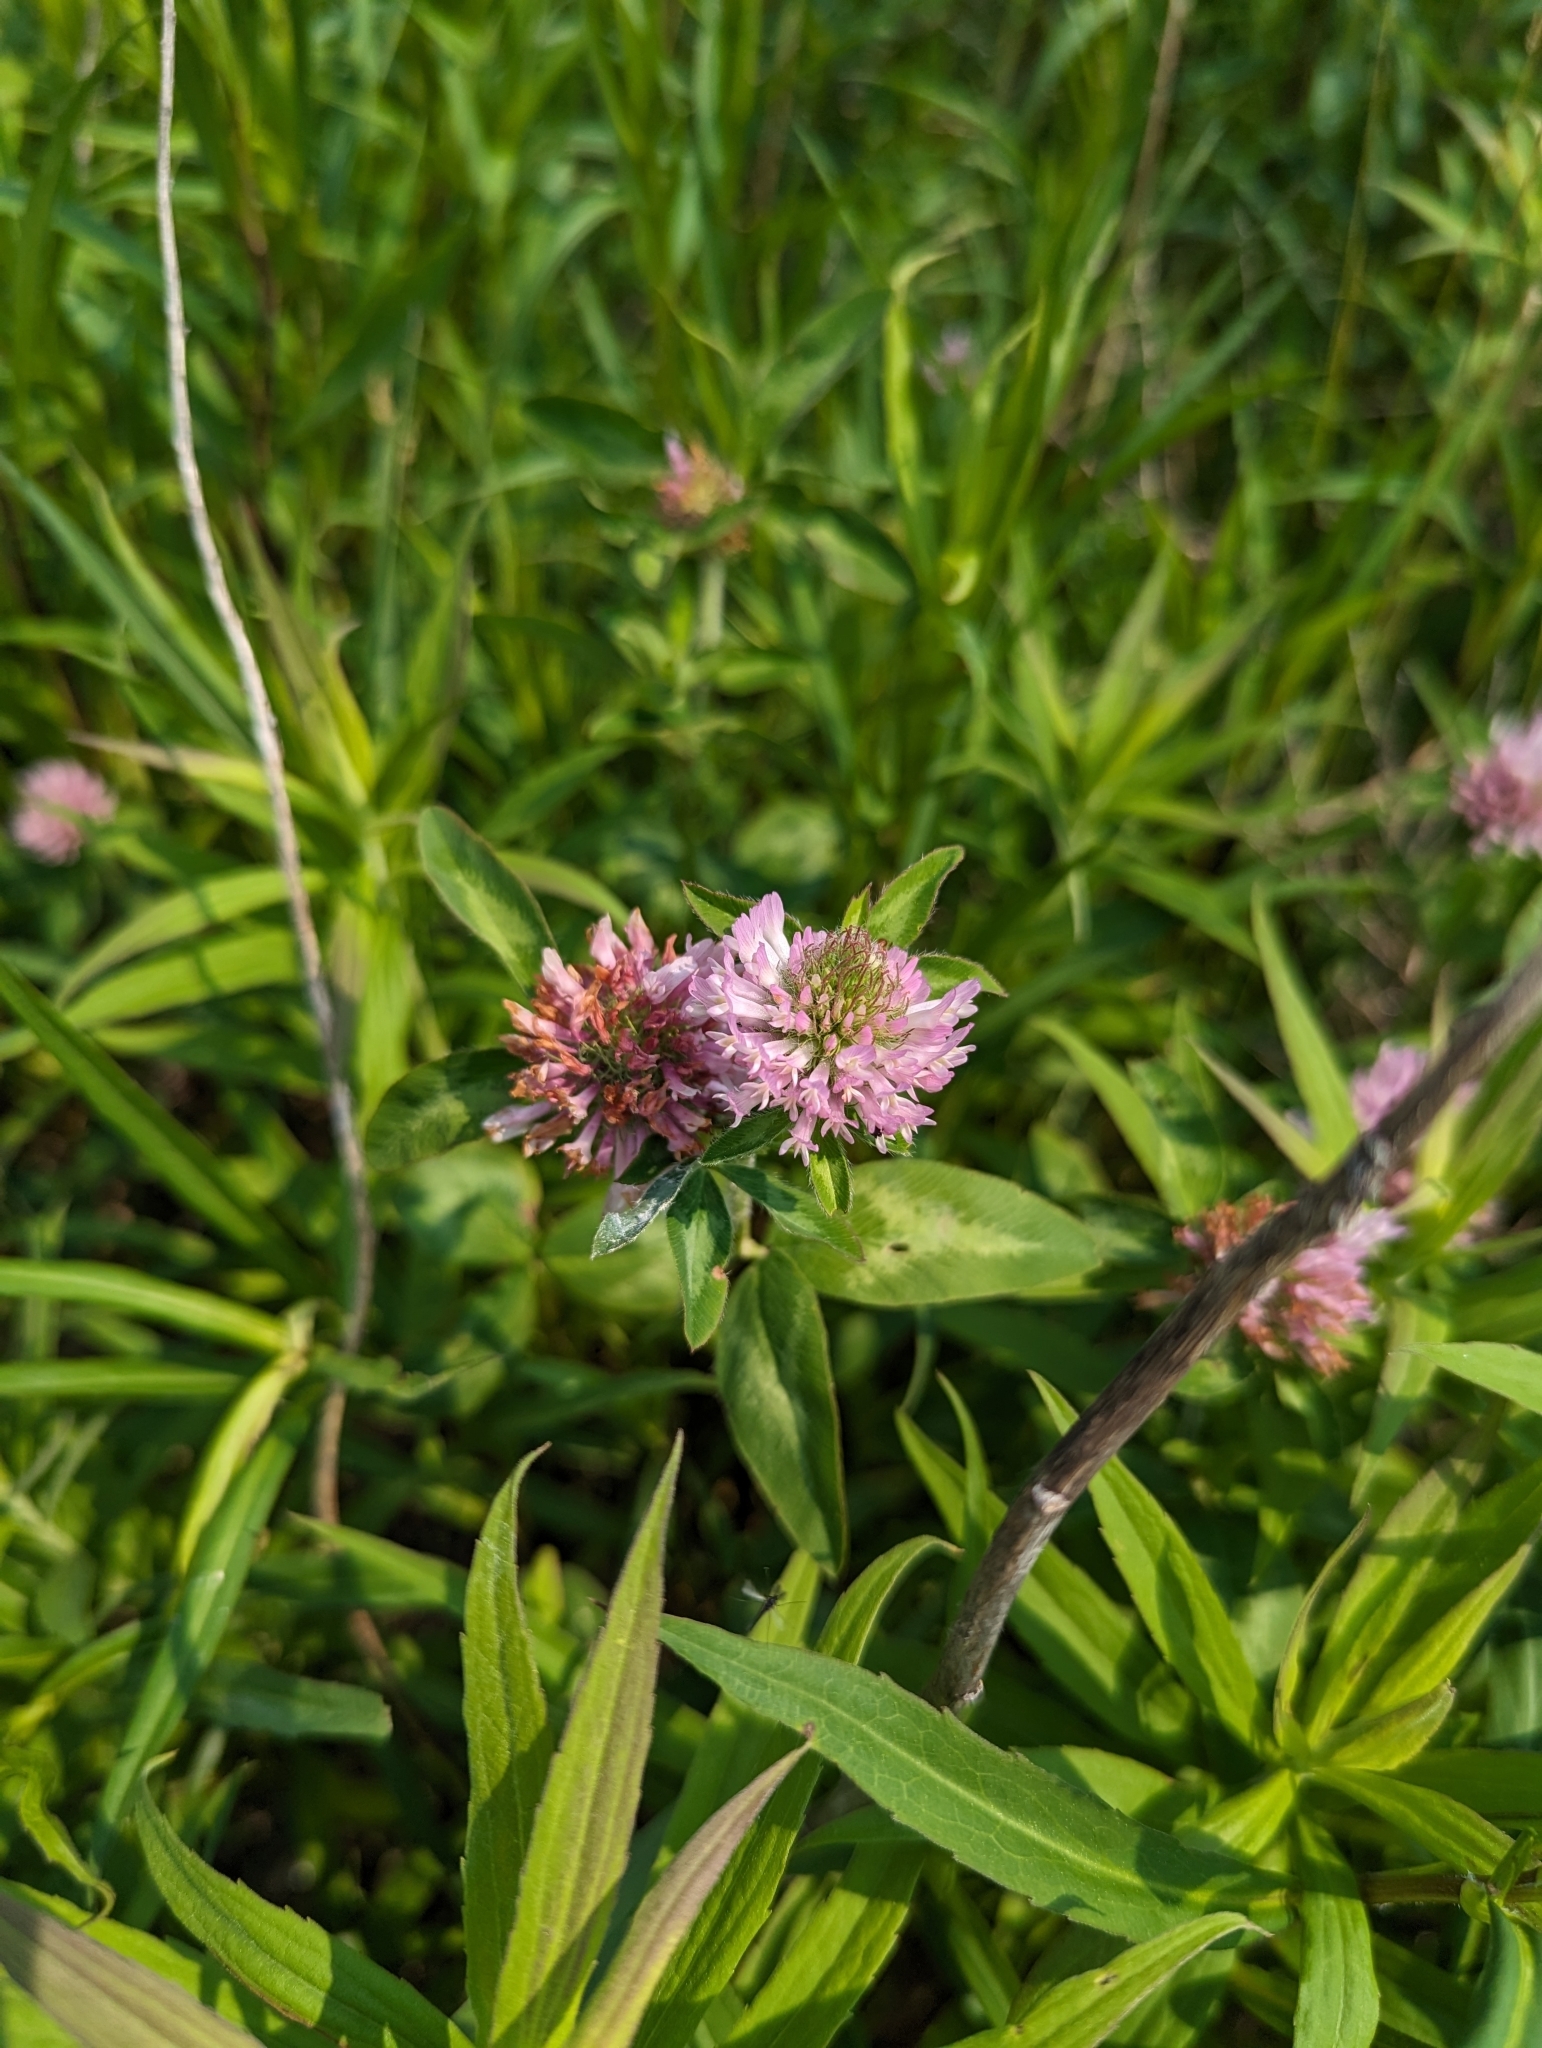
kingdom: Plantae
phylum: Tracheophyta
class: Magnoliopsida
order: Fabales
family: Fabaceae
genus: Trifolium
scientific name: Trifolium pratense
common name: Red clover
